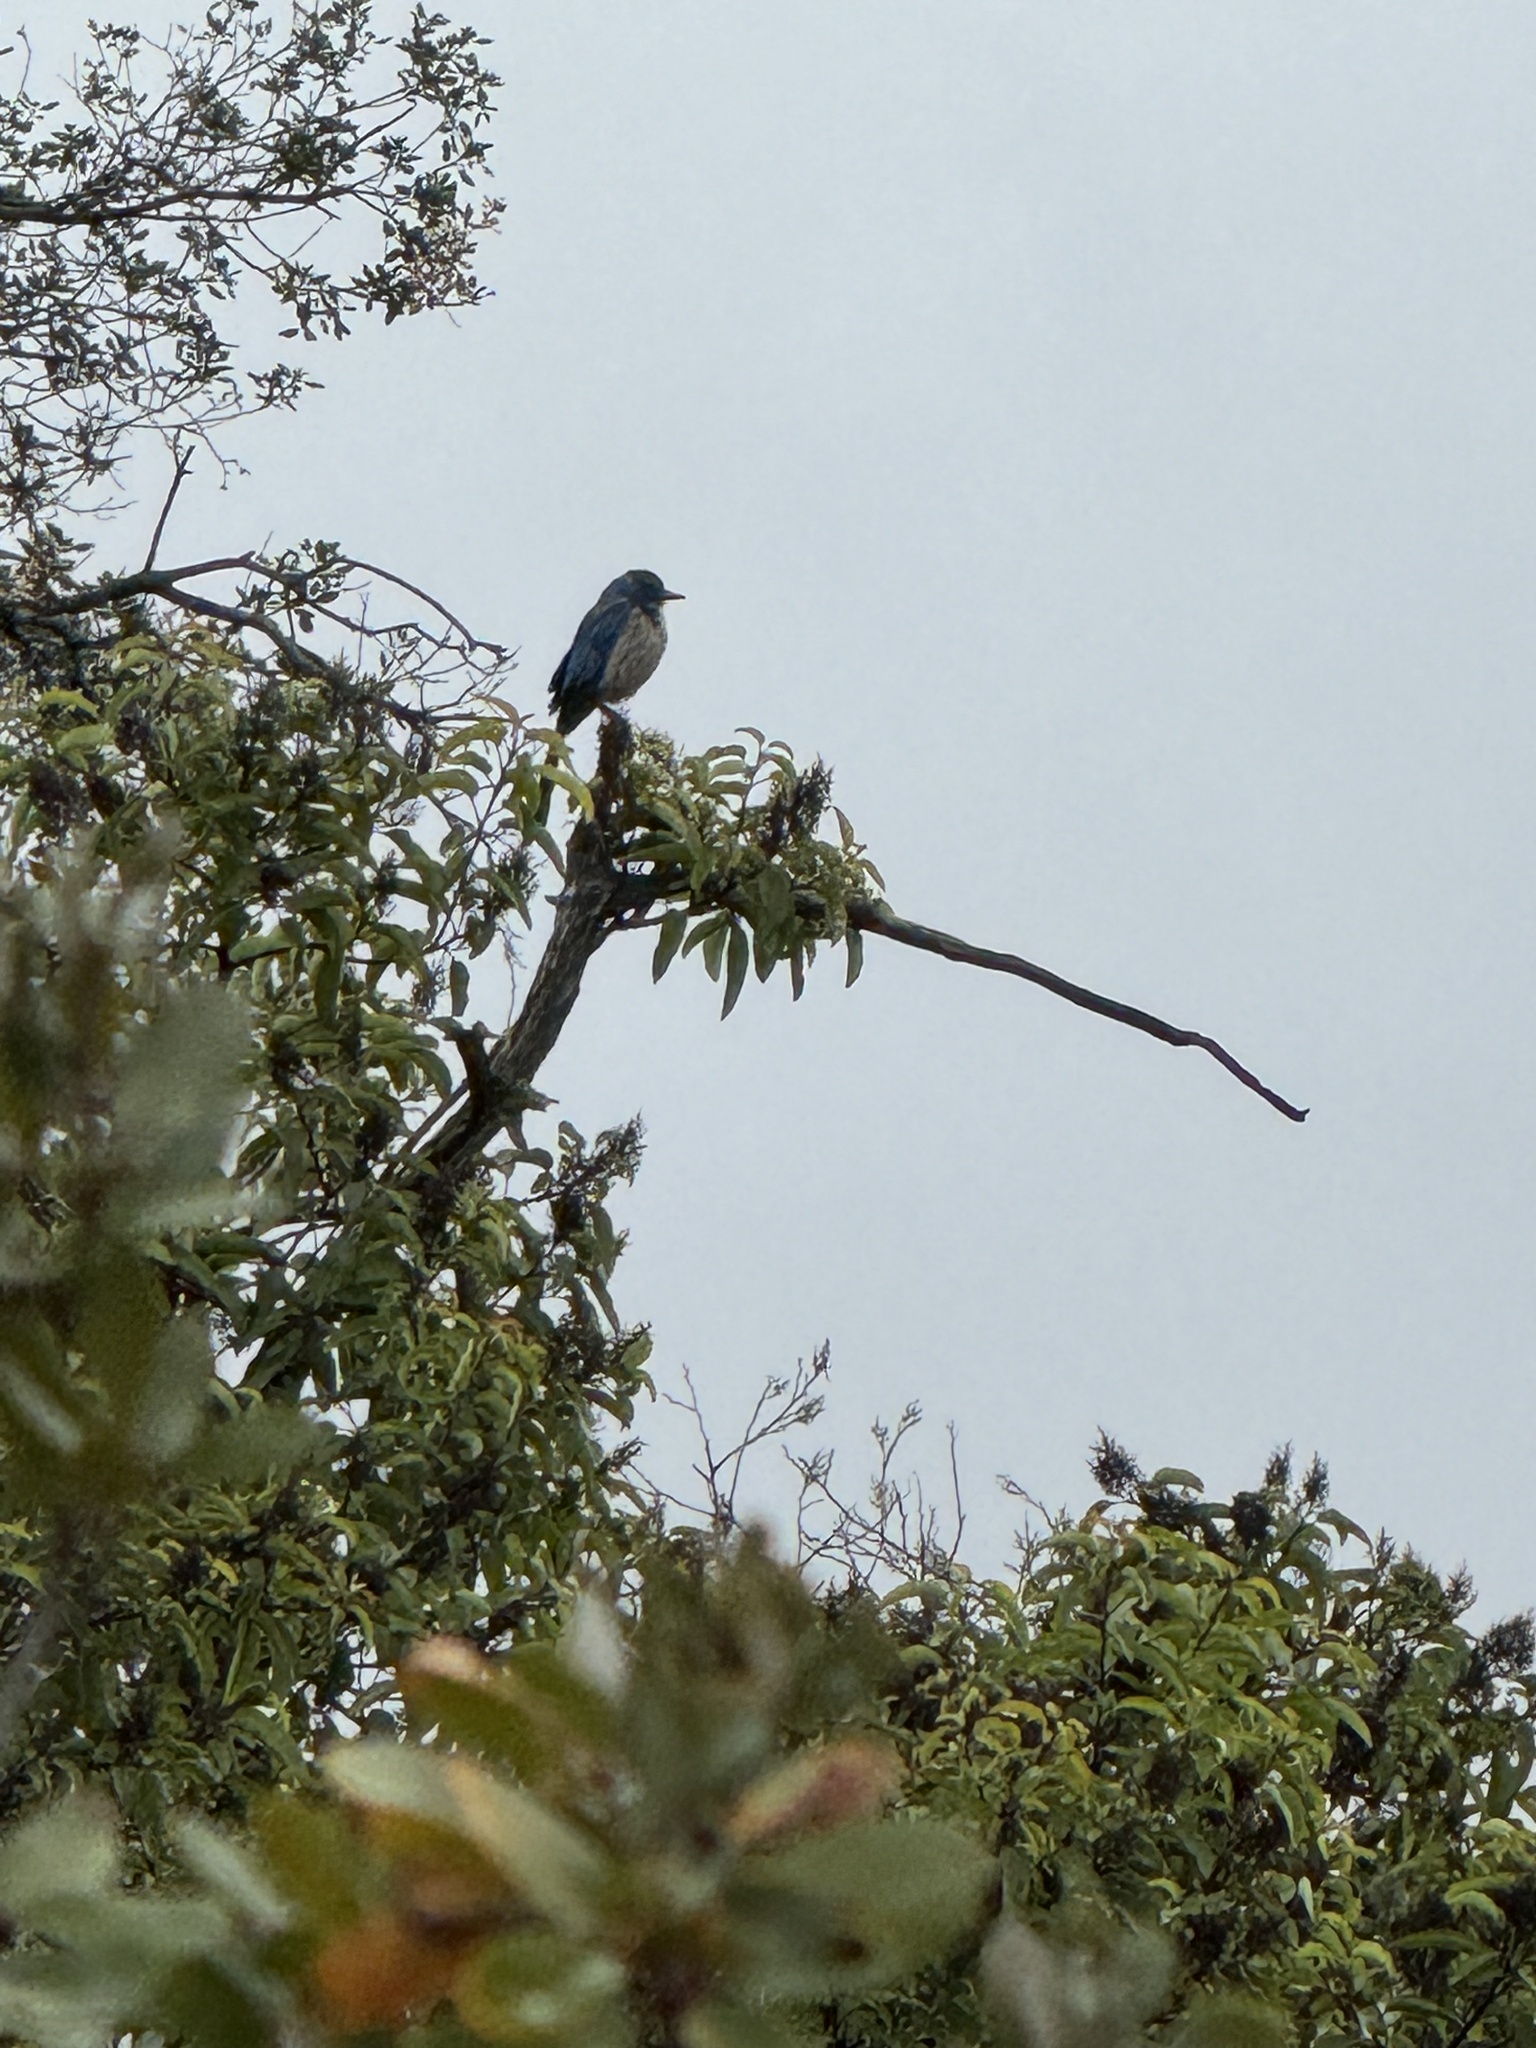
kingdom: Animalia
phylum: Chordata
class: Aves
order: Passeriformes
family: Corvidae
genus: Aphelocoma
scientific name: Aphelocoma californica
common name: California scrub-jay
